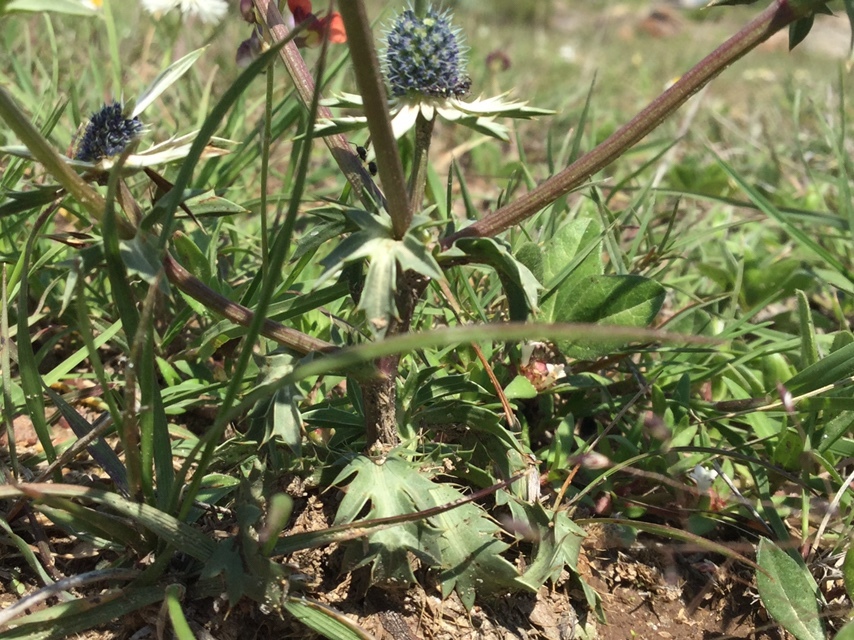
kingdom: Plantae
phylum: Tracheophyta
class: Magnoliopsida
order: Apiales
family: Apiaceae
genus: Eryngium
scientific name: Eryngium carlinae
